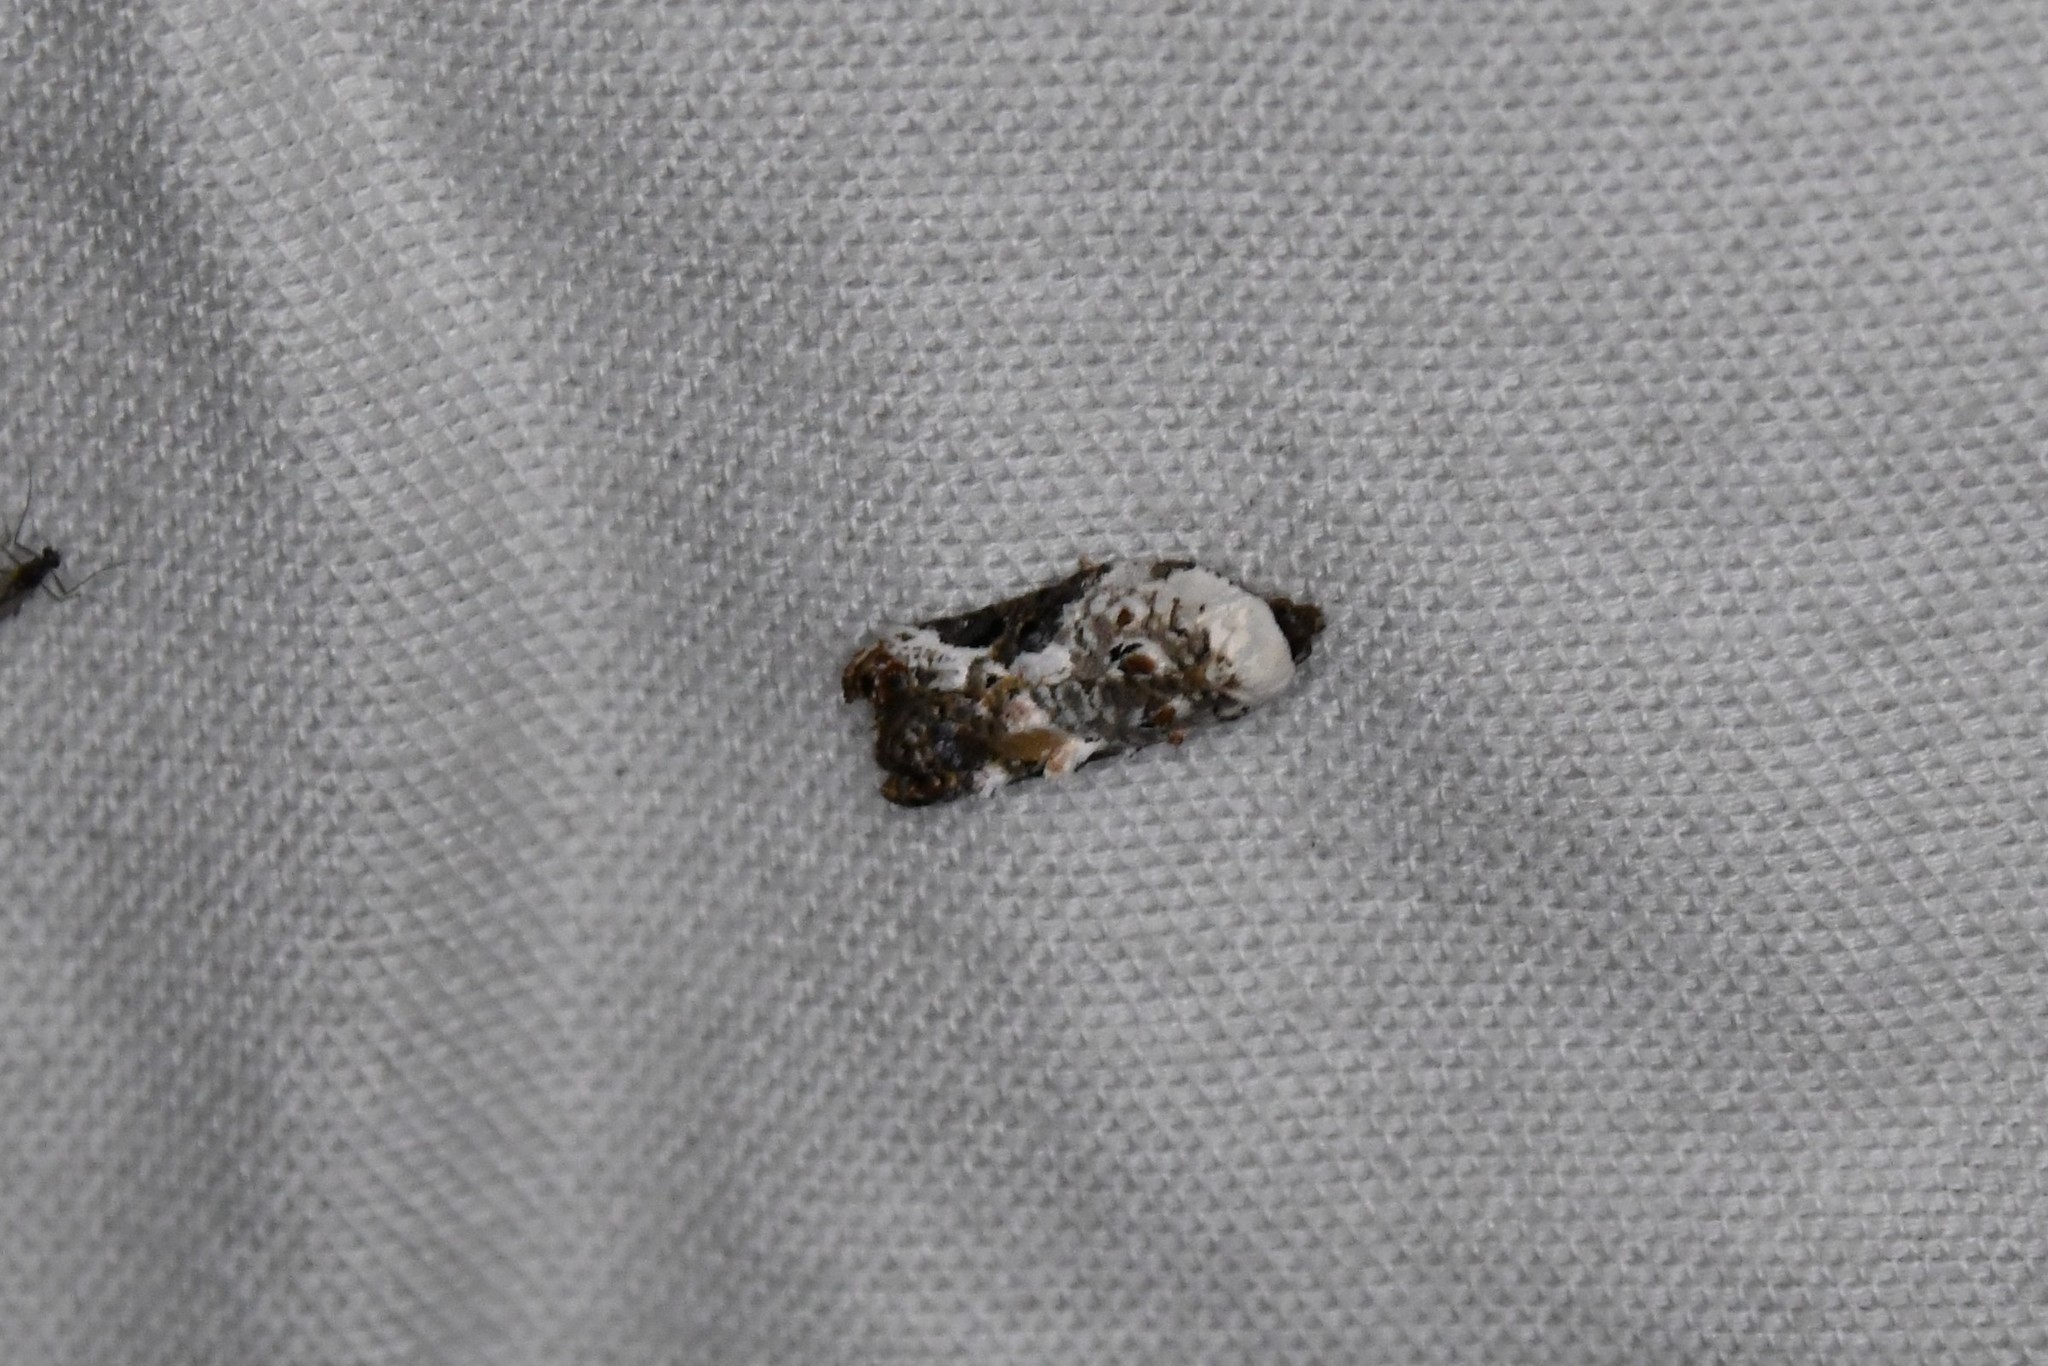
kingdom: Animalia
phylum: Arthropoda
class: Insecta
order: Lepidoptera
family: Tortricidae
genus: Acleris
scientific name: Acleris nivisellana
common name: Snowy-shouldered acleris moth
